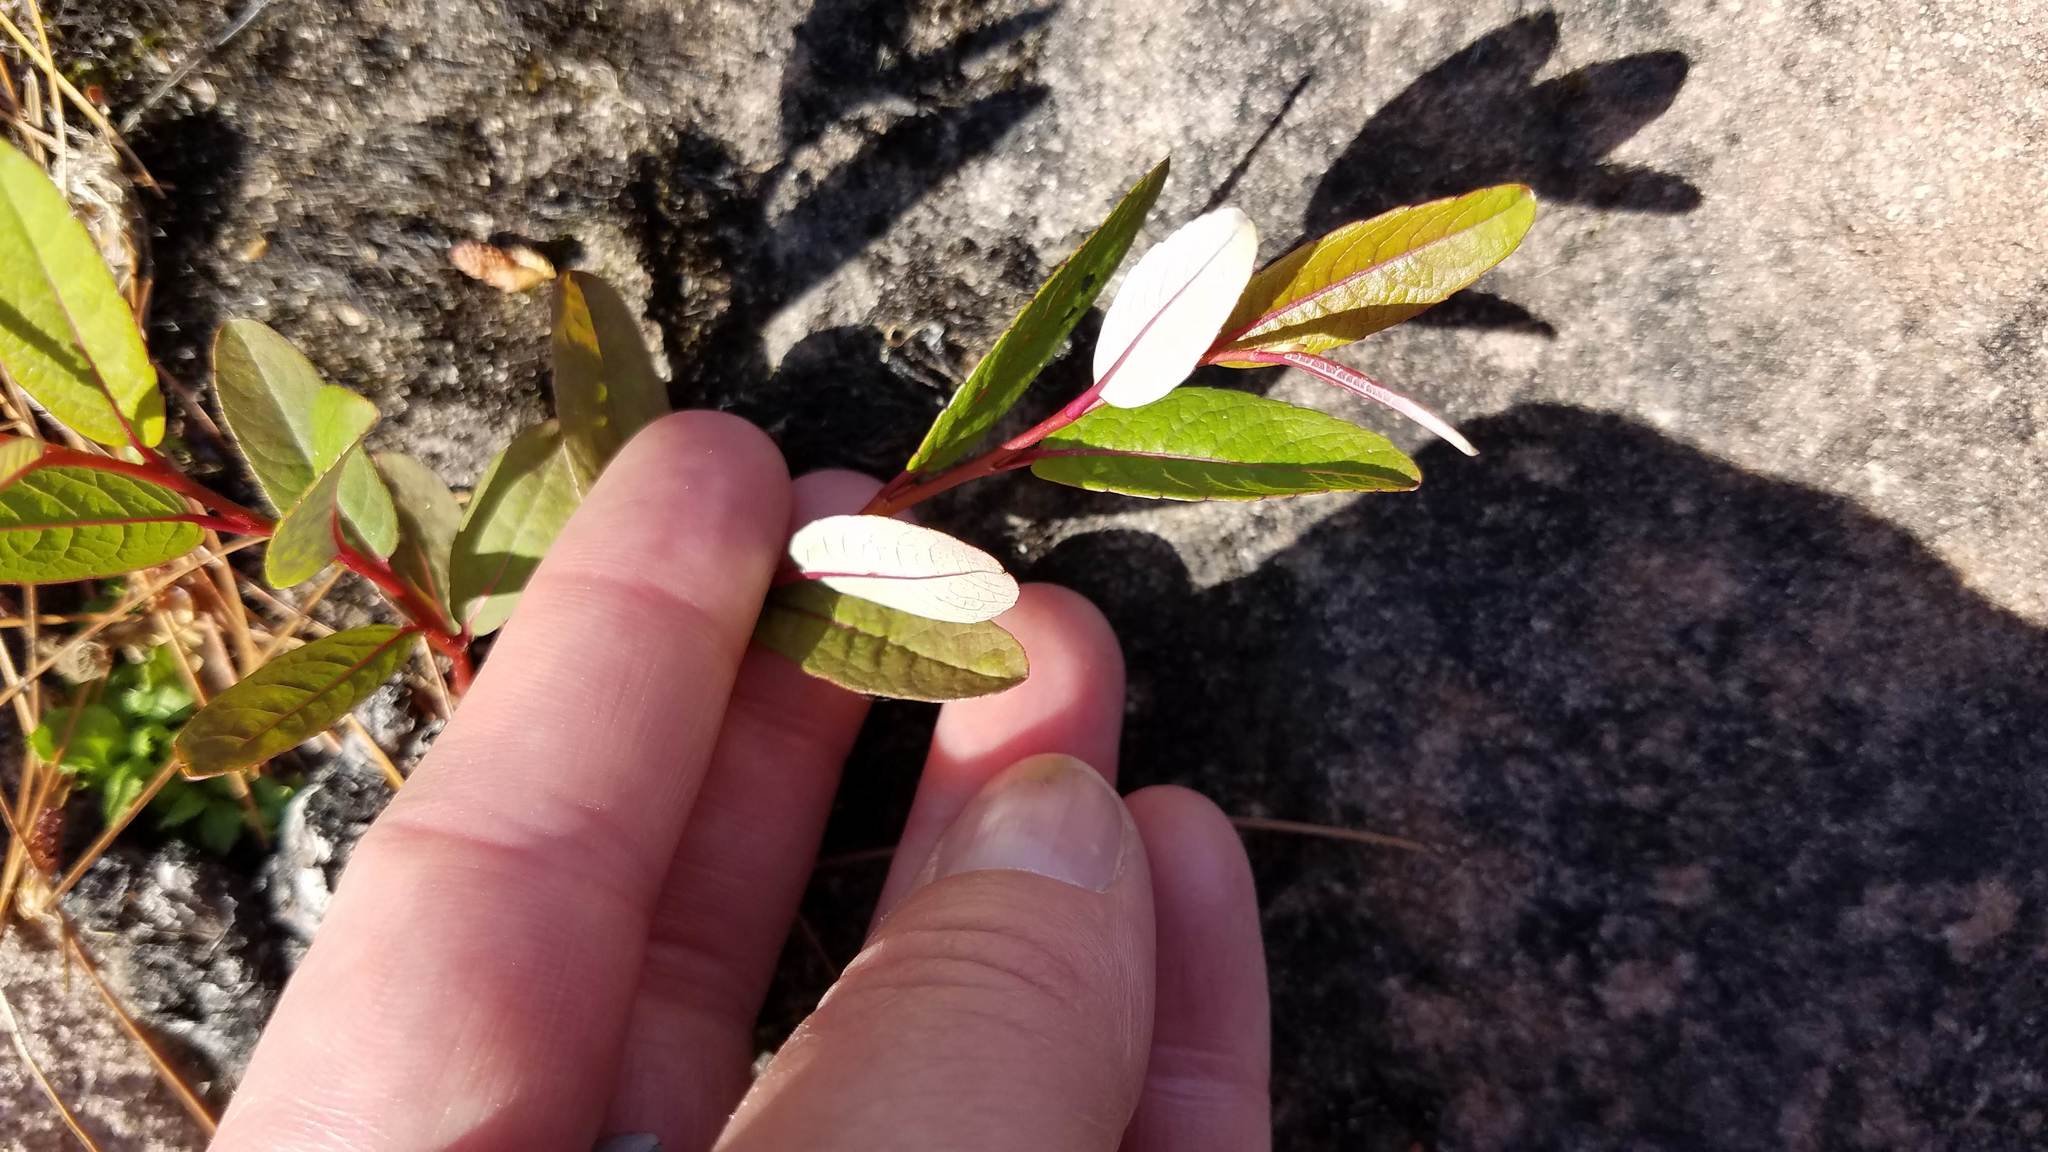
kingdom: Plantae
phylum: Tracheophyta
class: Magnoliopsida
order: Malpighiales
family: Salicaceae
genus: Salix
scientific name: Salix myricoides
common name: Bayberry willow
